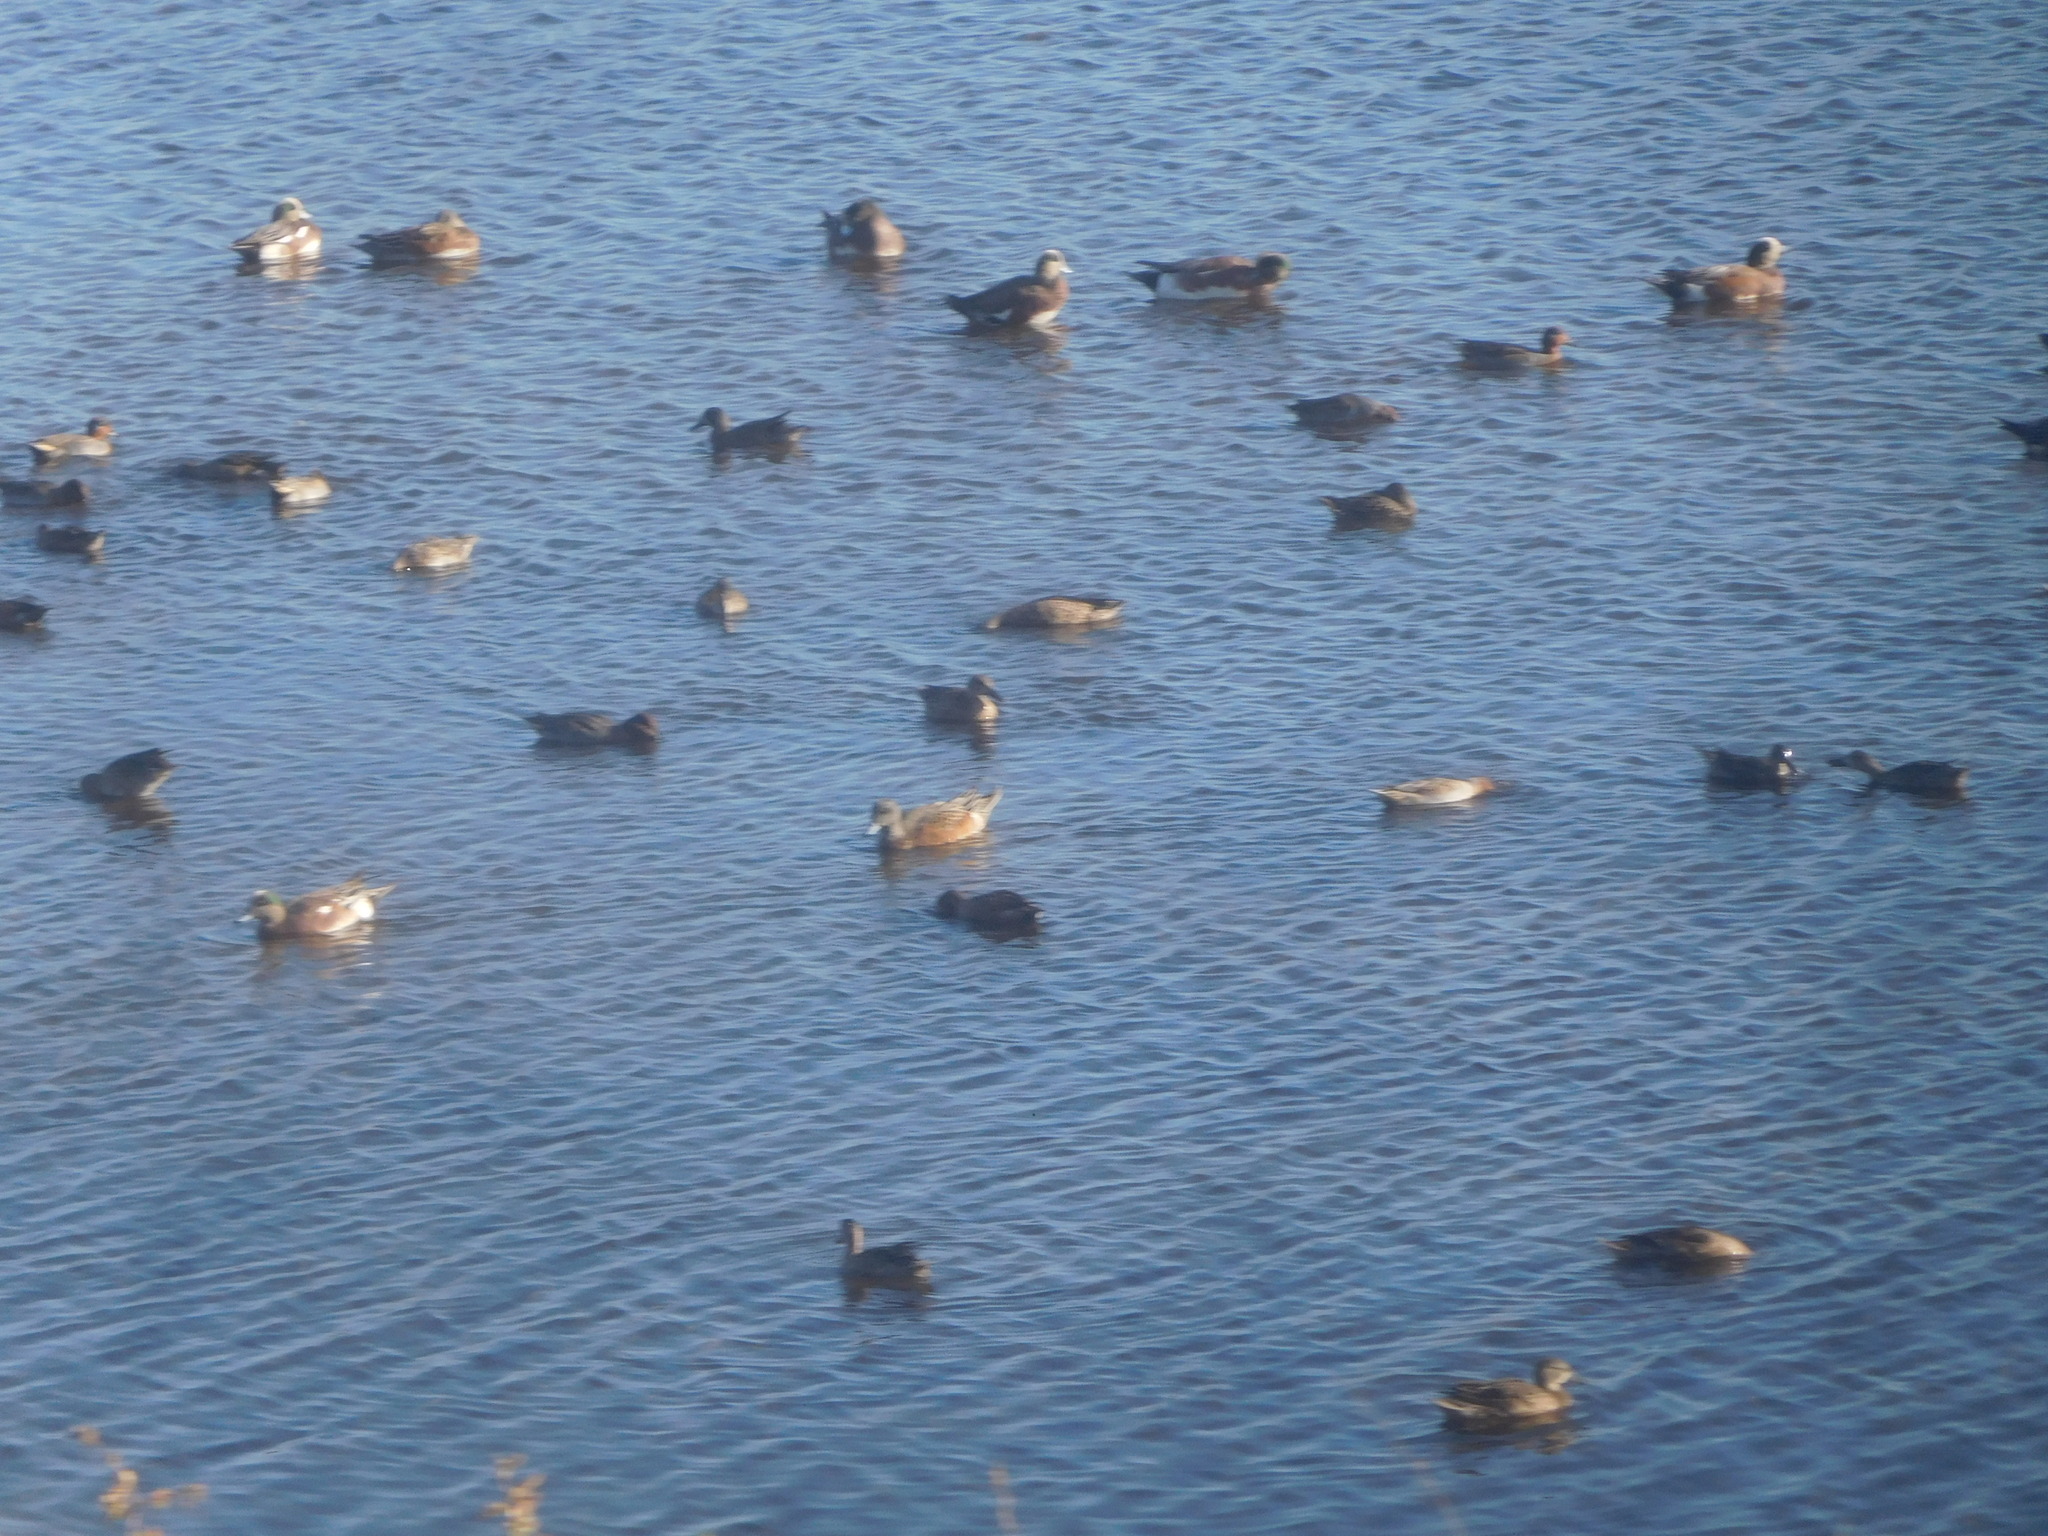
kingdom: Animalia
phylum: Chordata
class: Aves
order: Anseriformes
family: Anatidae
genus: Mareca
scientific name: Mareca americana
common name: American wigeon
